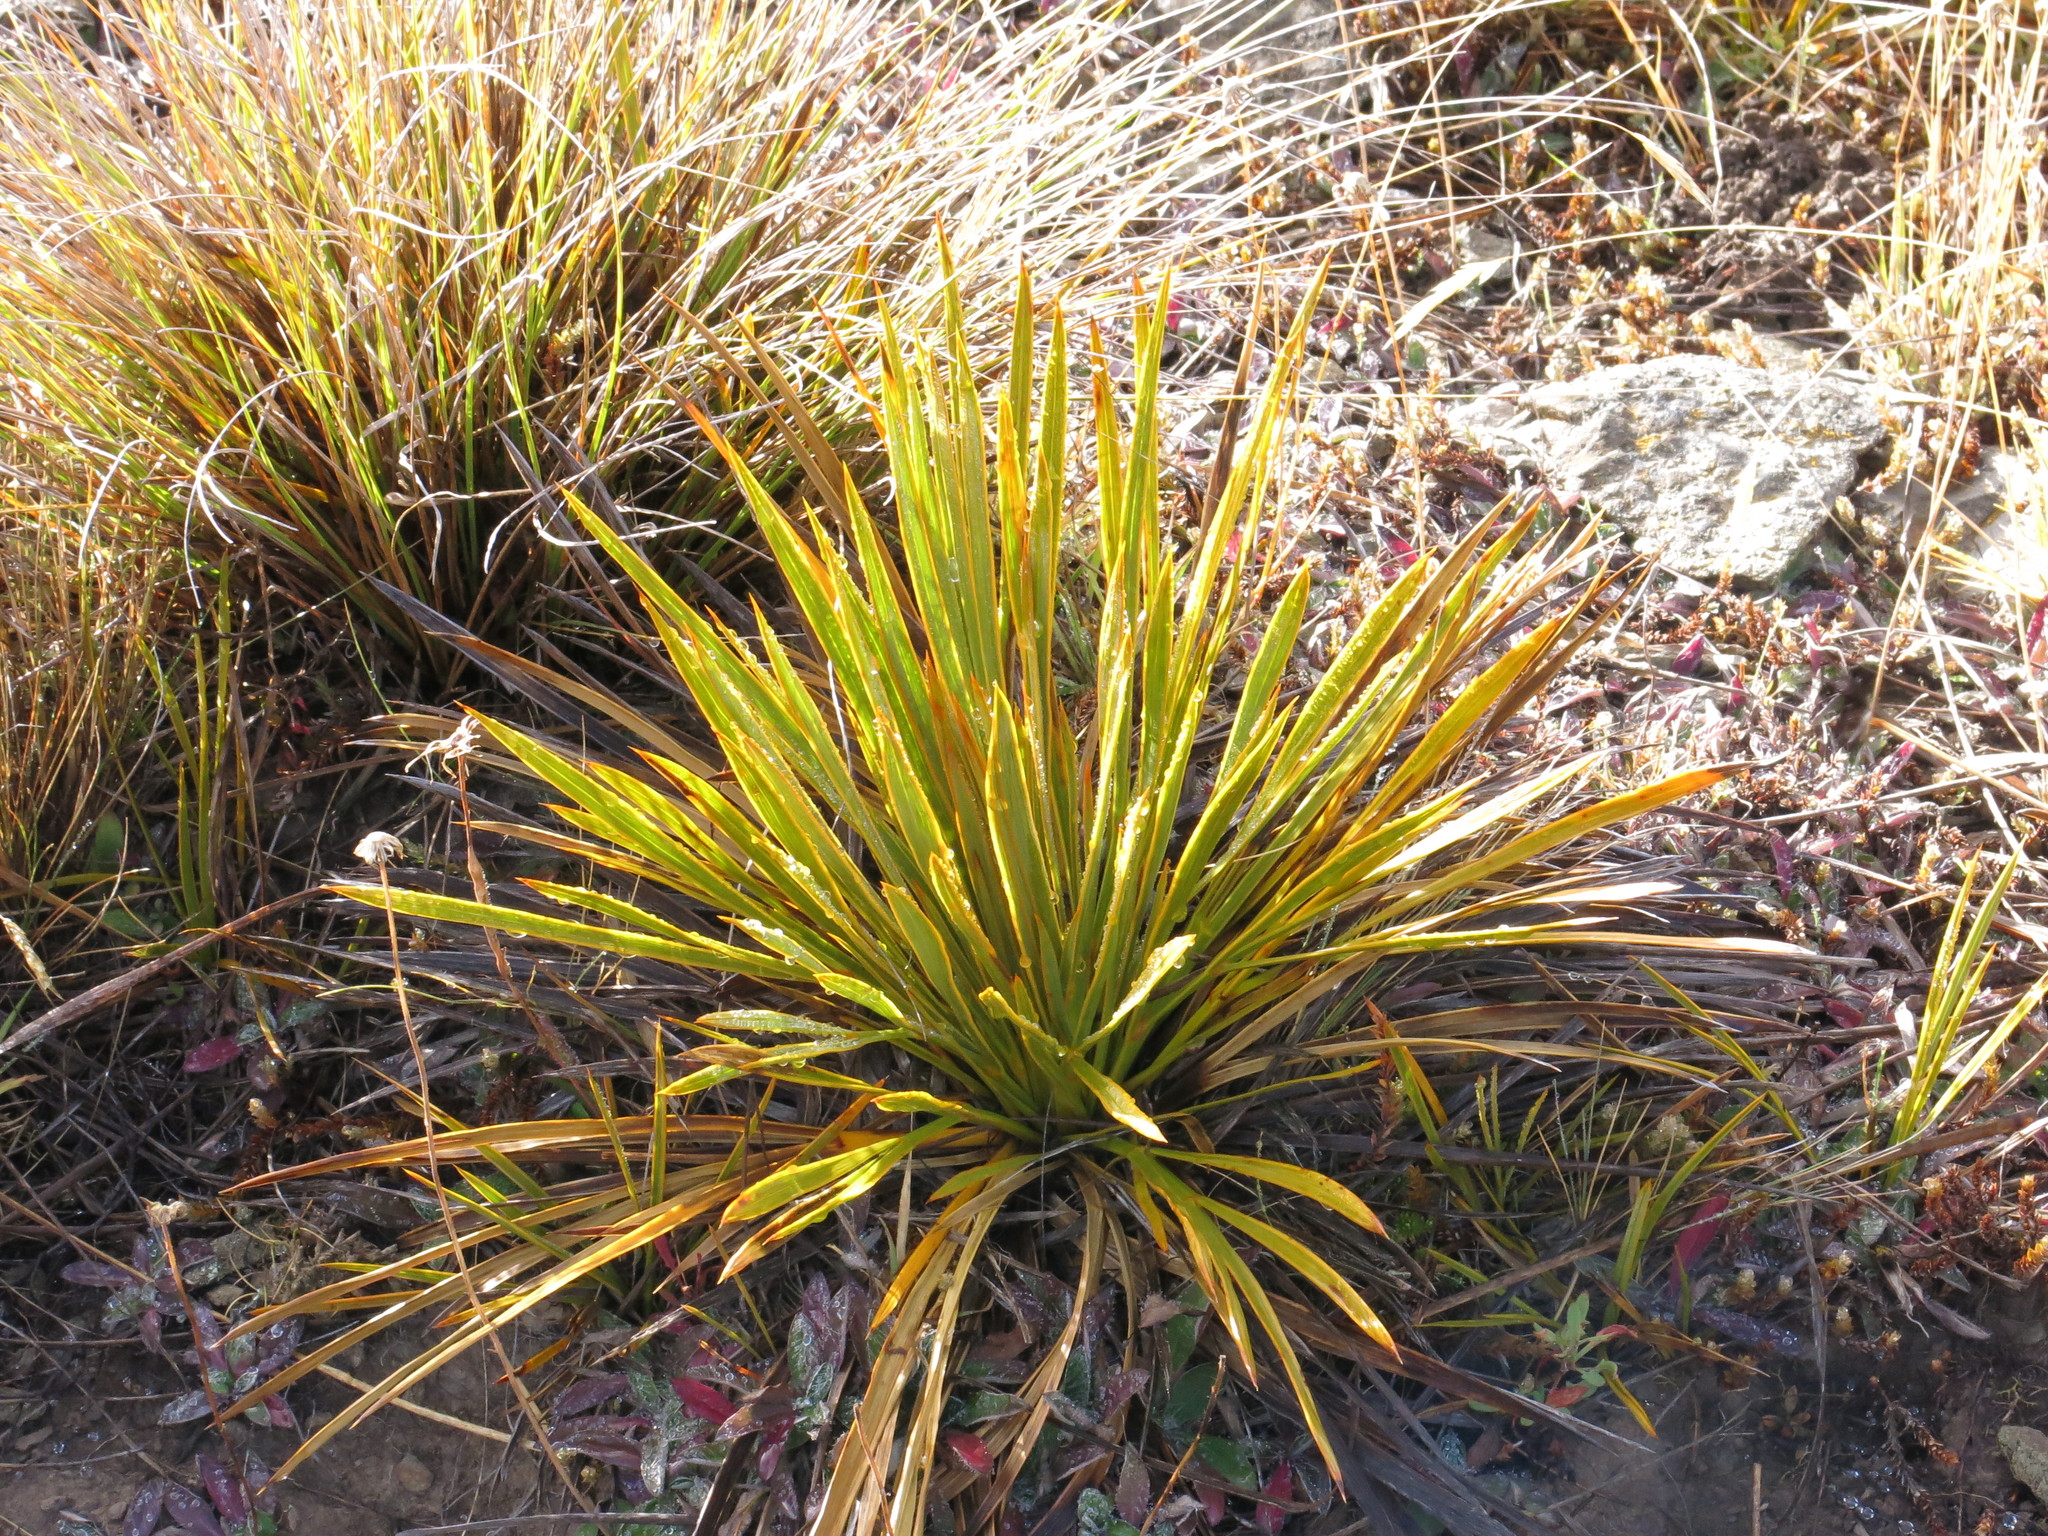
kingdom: Plantae
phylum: Tracheophyta
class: Magnoliopsida
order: Apiales
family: Apiaceae
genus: Aciphylla
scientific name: Aciphylla aurea
